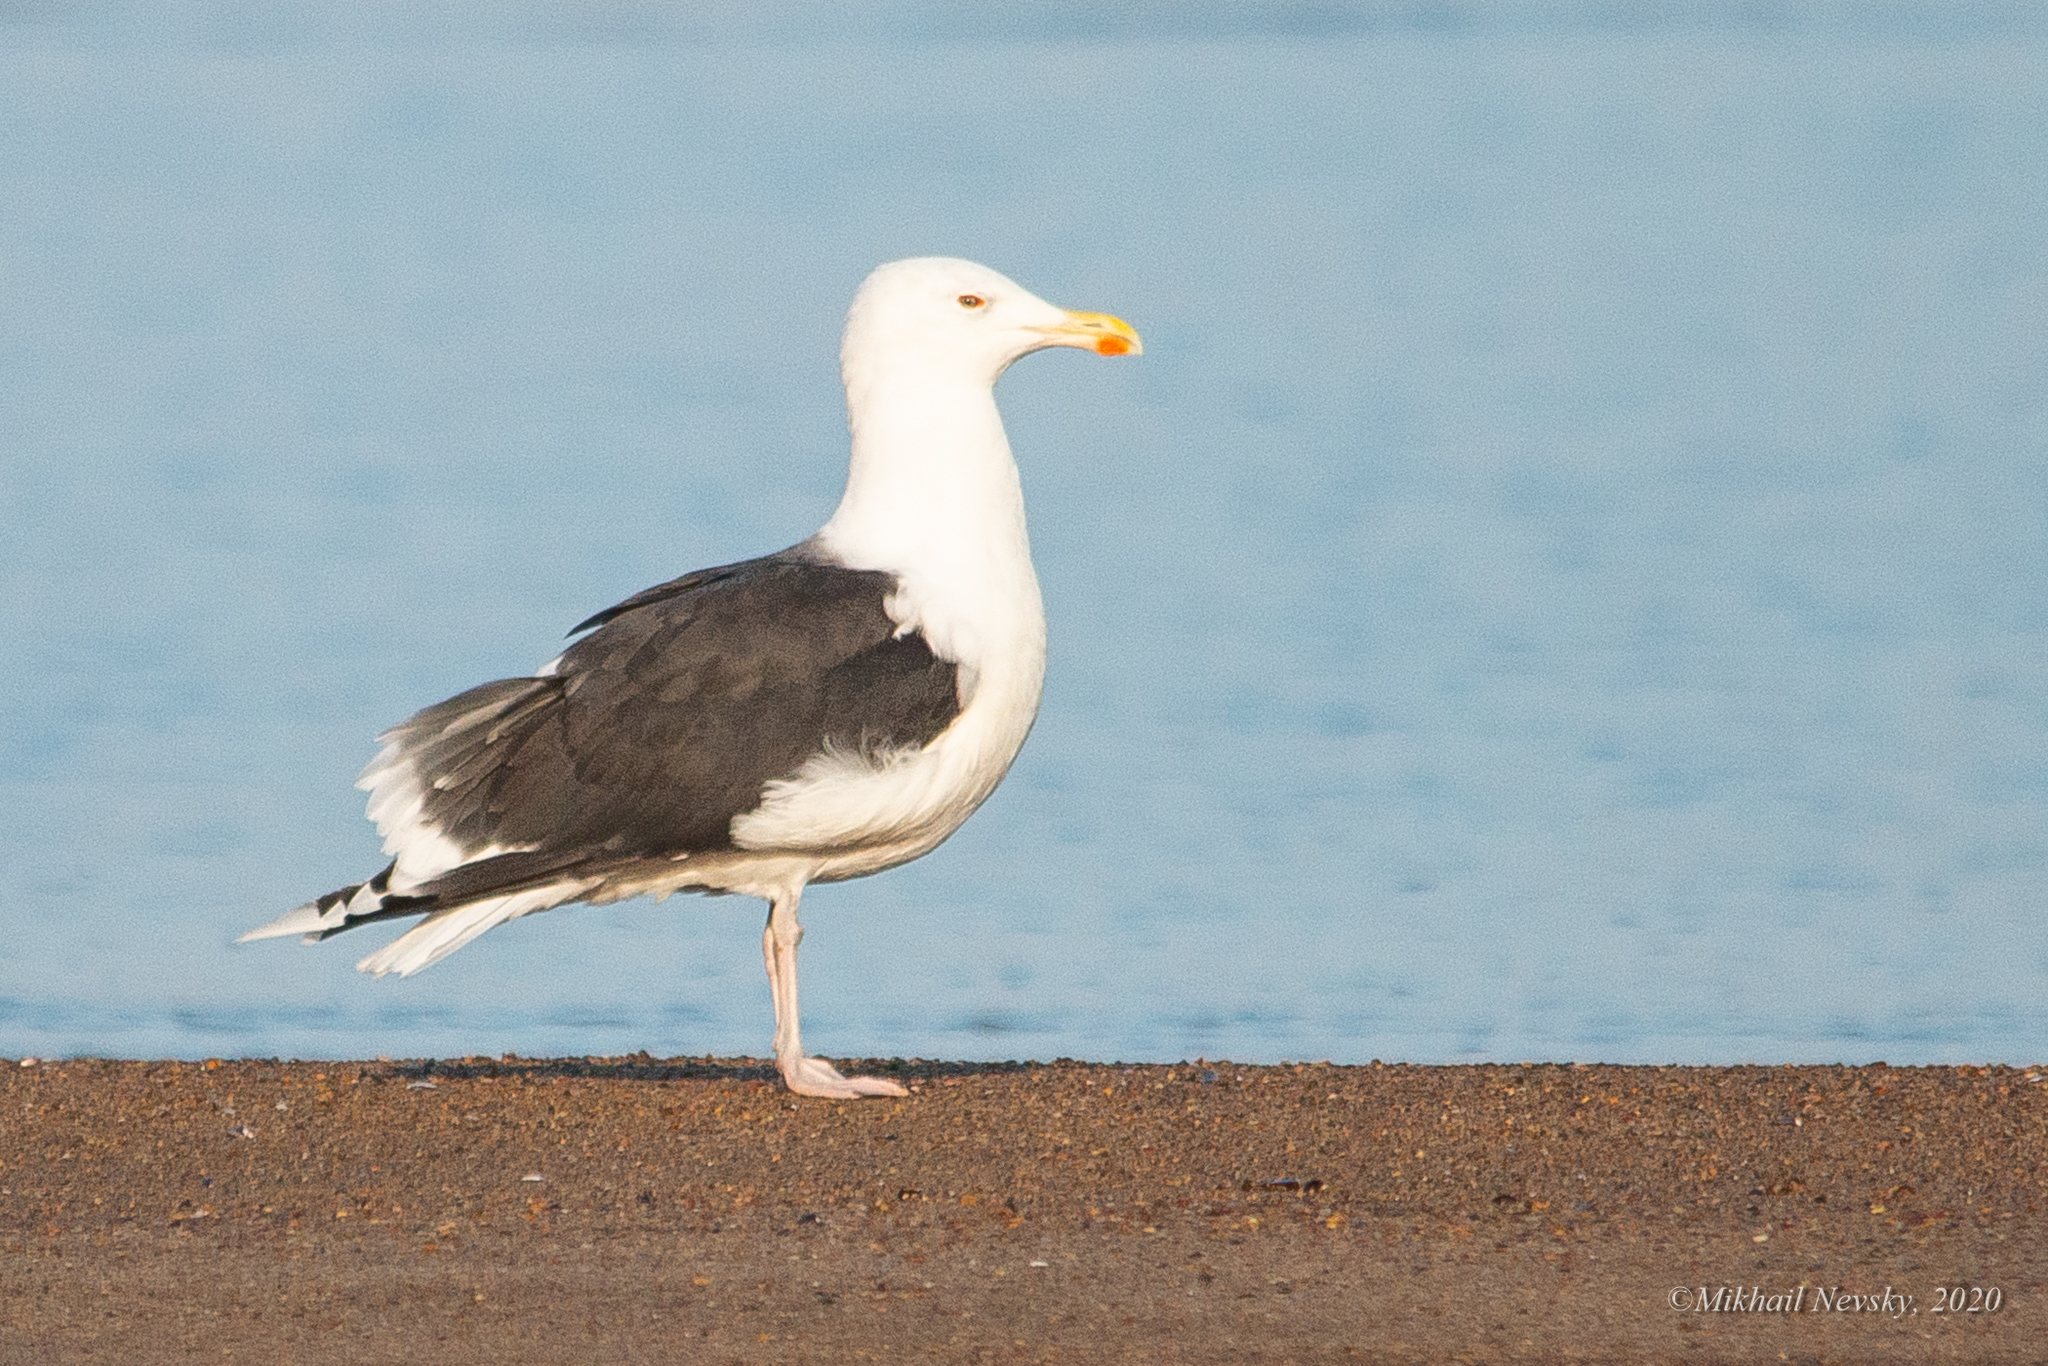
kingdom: Animalia
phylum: Chordata
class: Aves
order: Charadriiformes
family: Laridae
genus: Larus
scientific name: Larus marinus
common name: Great black-backed gull
